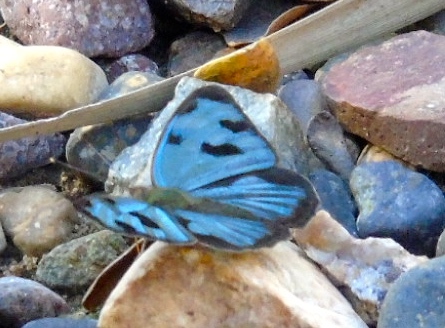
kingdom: Animalia
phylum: Arthropoda
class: Insecta
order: Lepidoptera
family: Nymphalidae
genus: Dynamine
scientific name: Dynamine mylitta
